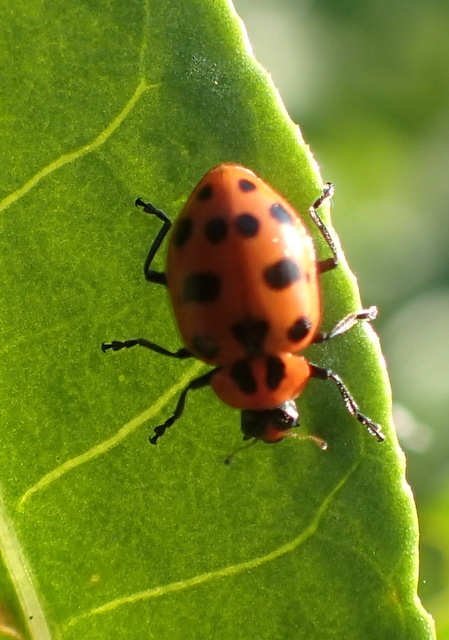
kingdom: Animalia
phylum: Arthropoda
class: Insecta
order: Coleoptera
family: Coccinellidae
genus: Coleomegilla
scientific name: Coleomegilla maculata
